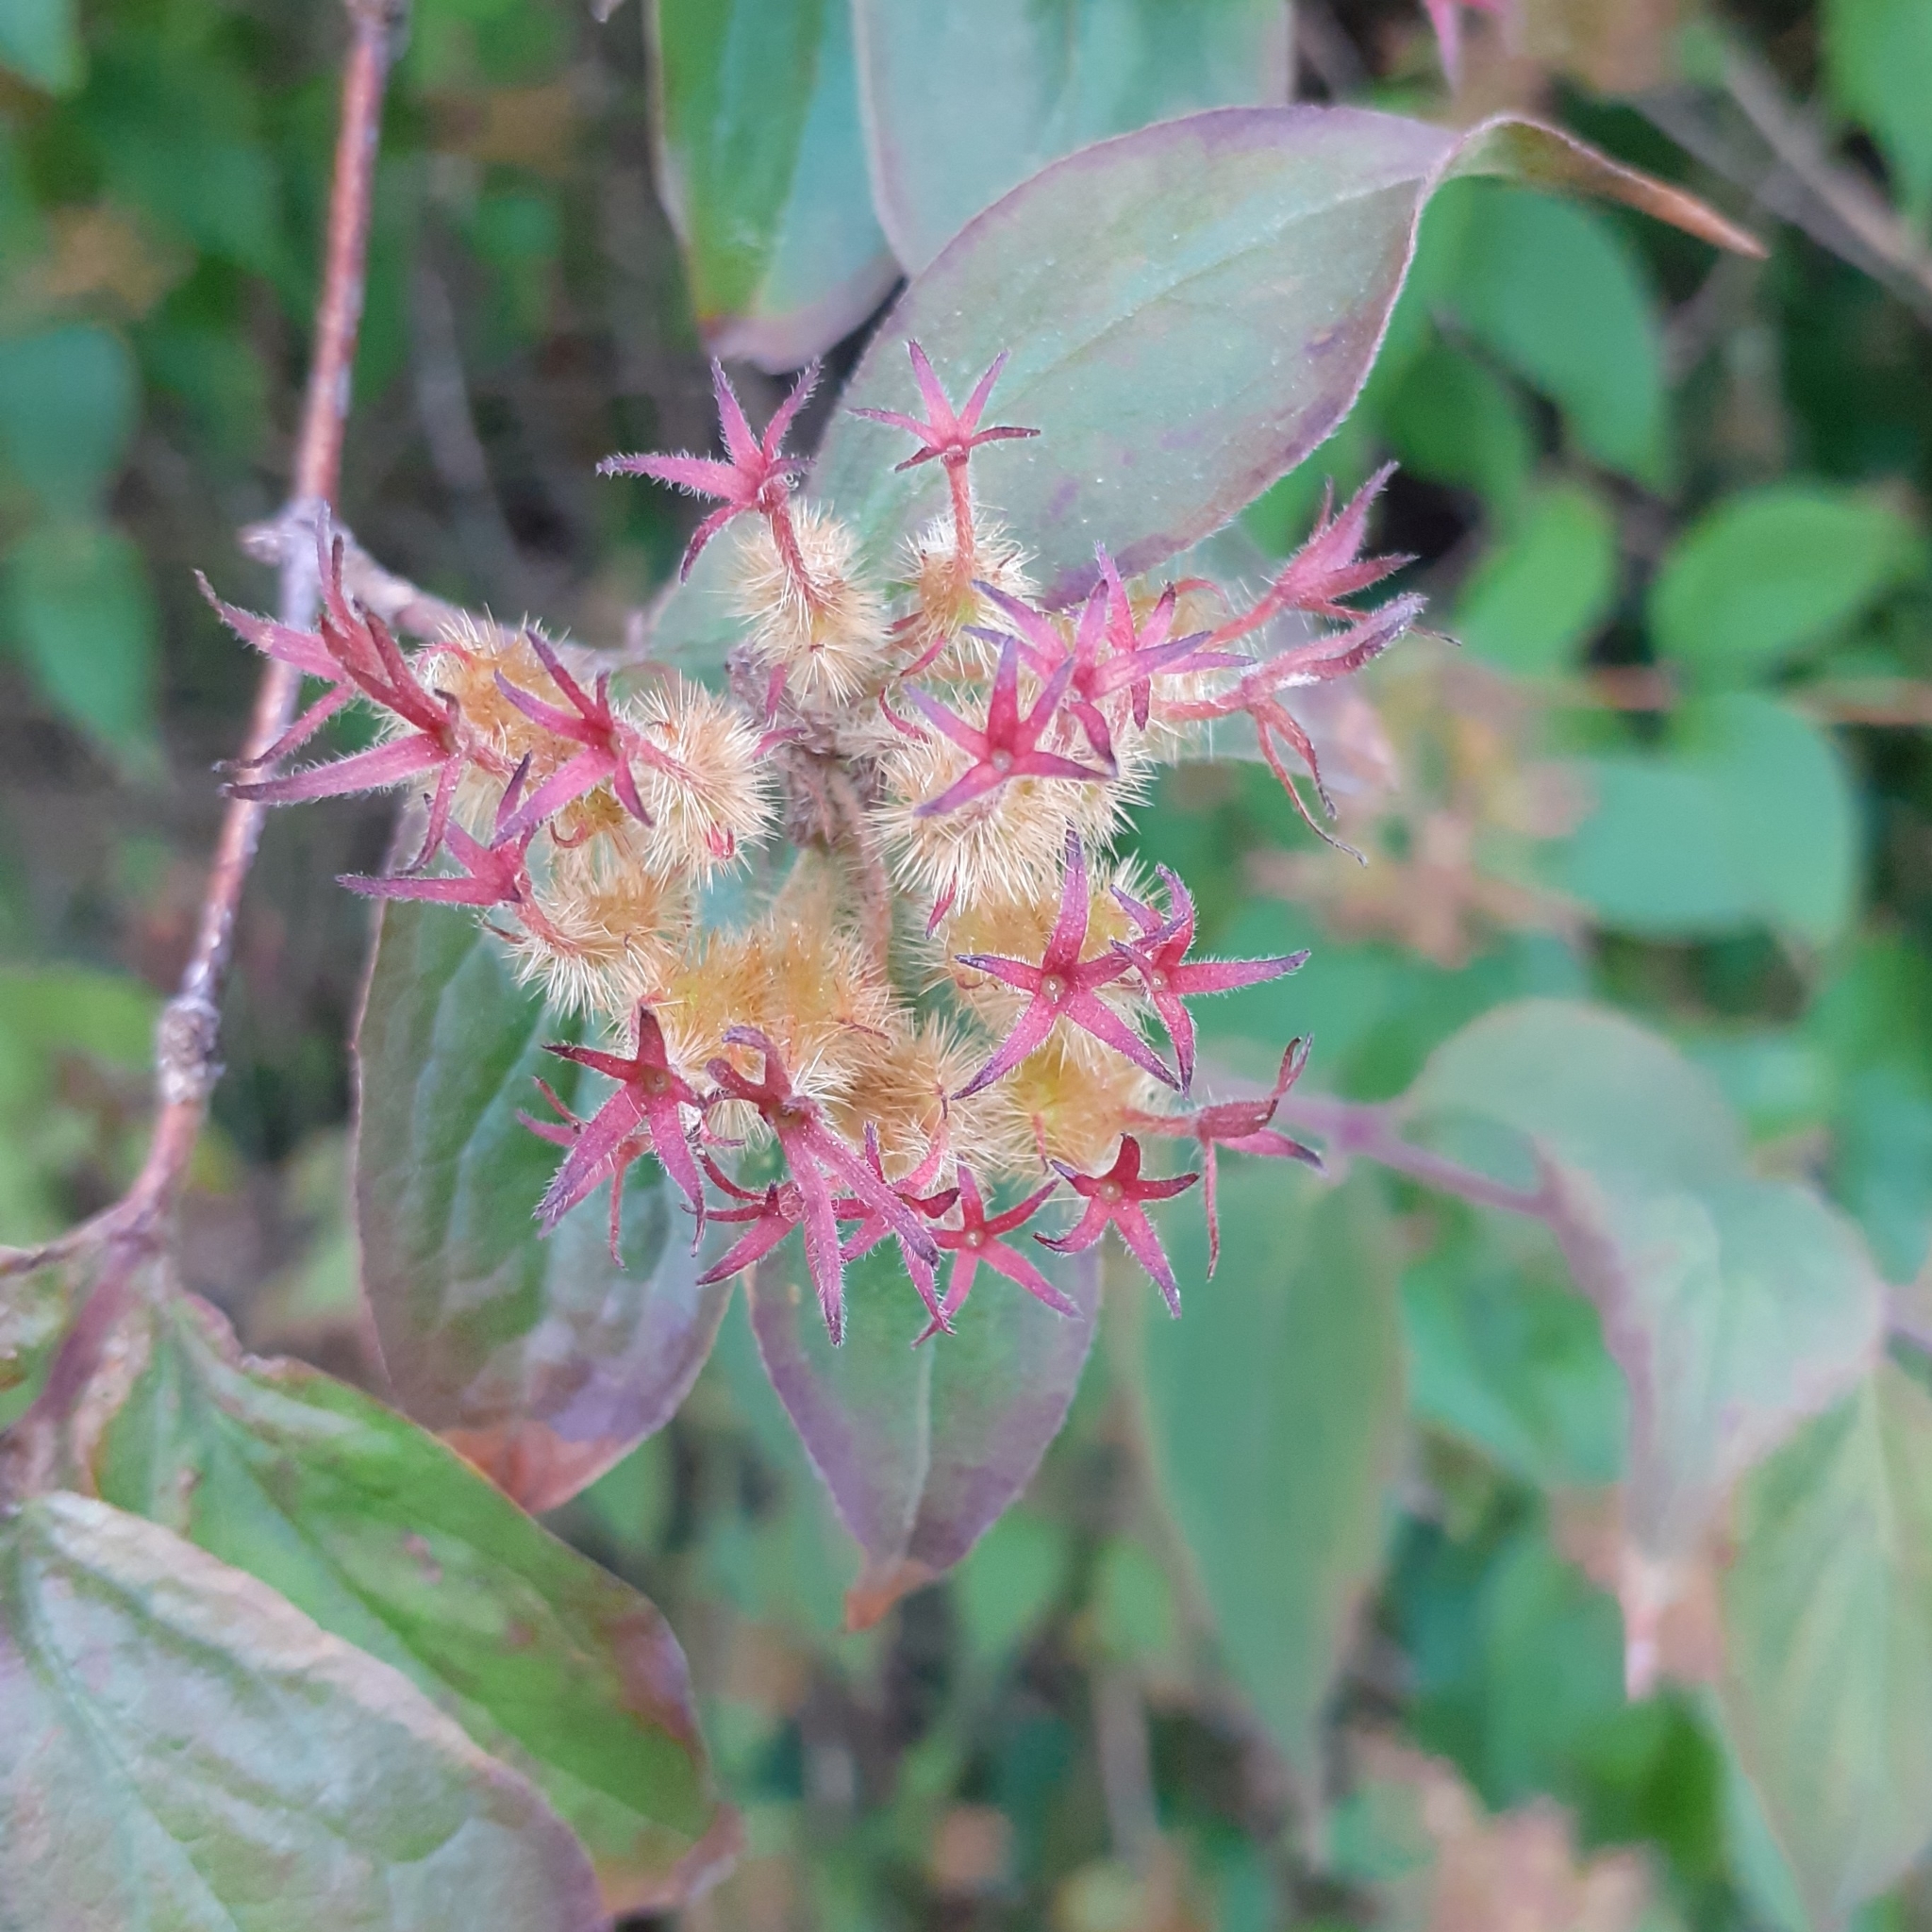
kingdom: Plantae
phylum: Tracheophyta
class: Magnoliopsida
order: Dipsacales
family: Caprifoliaceae
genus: Kolkwitzia
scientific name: Kolkwitzia amabilis
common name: Beautybush
